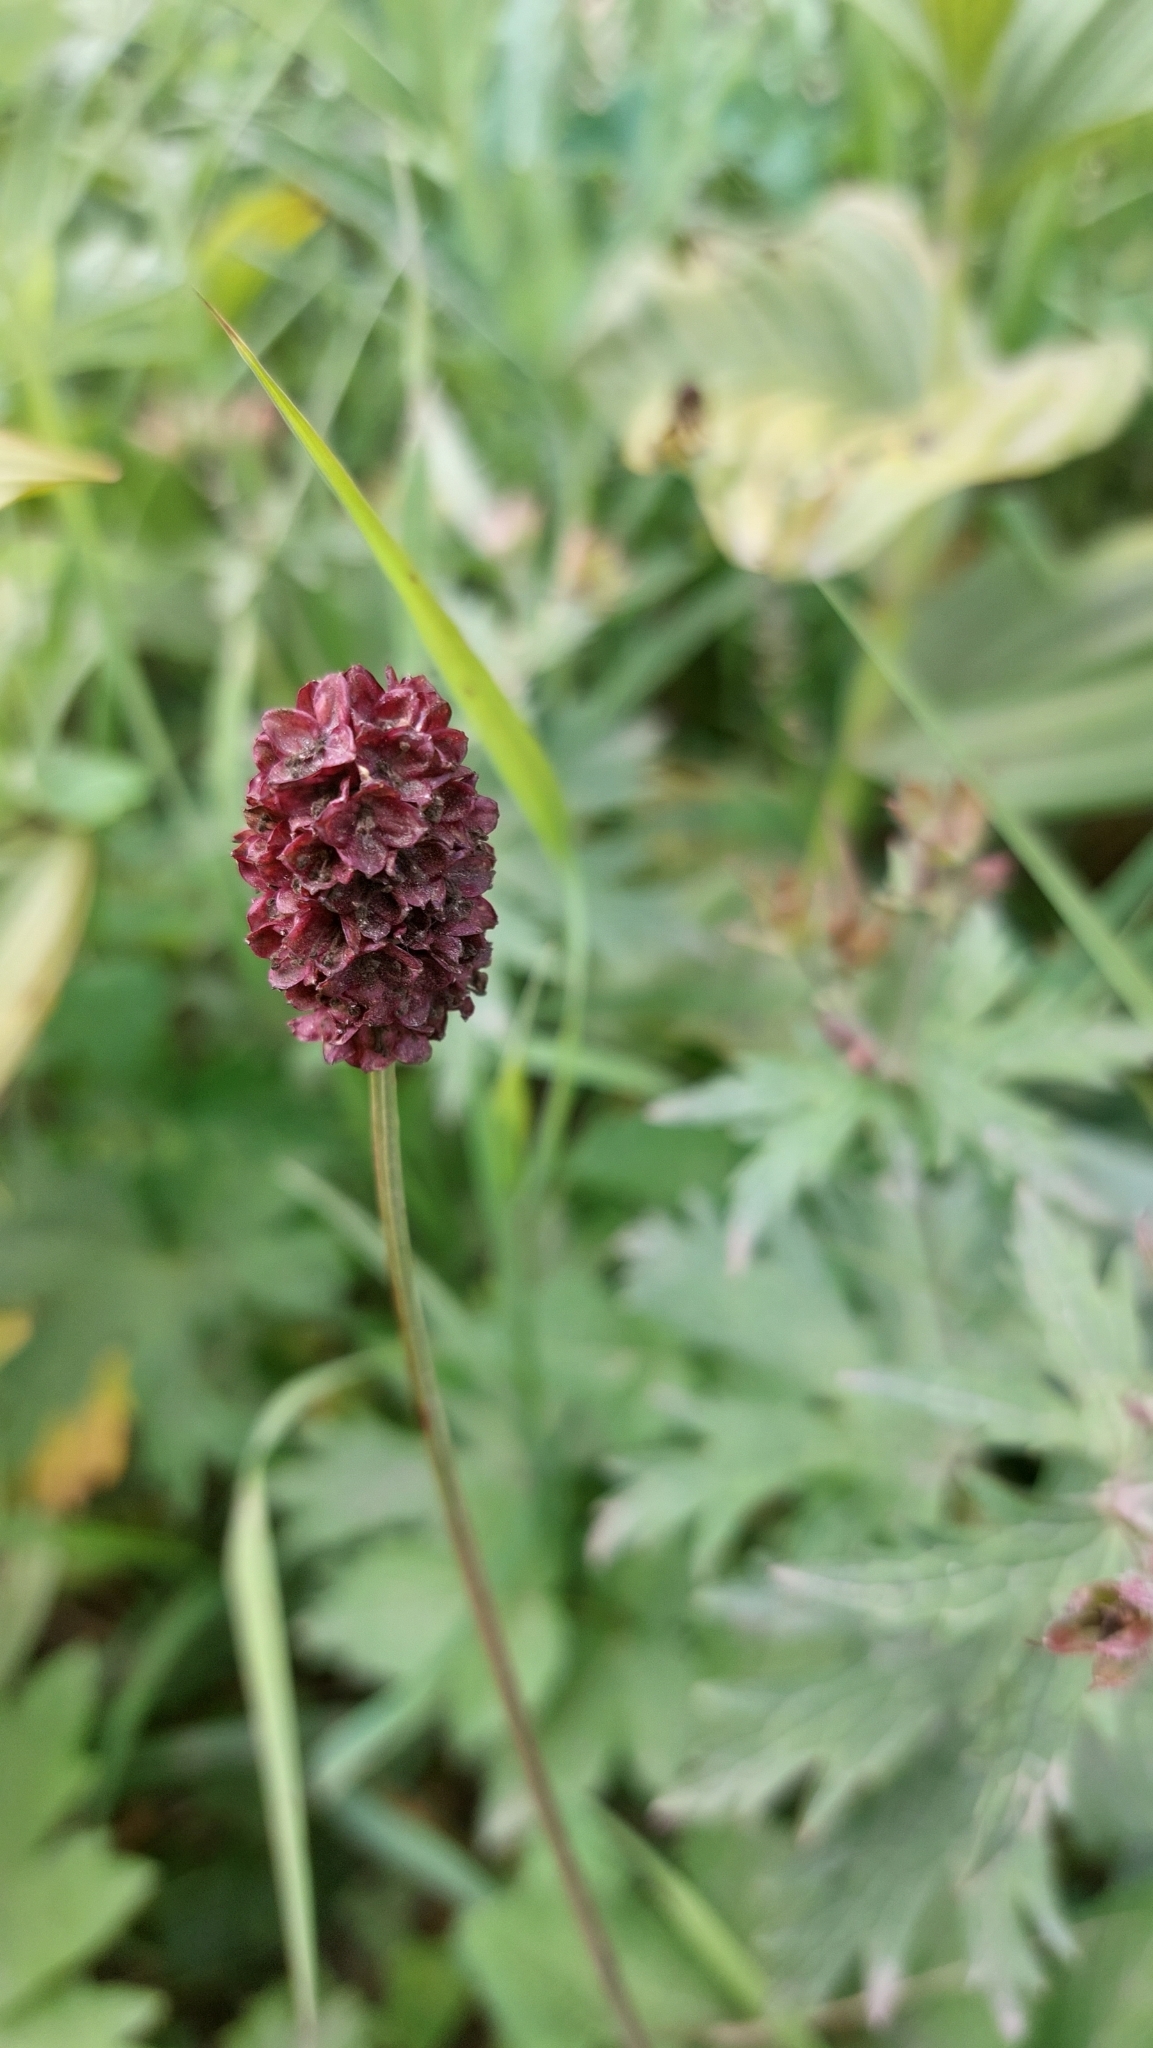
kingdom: Plantae
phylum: Tracheophyta
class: Magnoliopsida
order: Rosales
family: Rosaceae
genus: Sanguisorba
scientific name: Sanguisorba officinalis
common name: Great burnet
